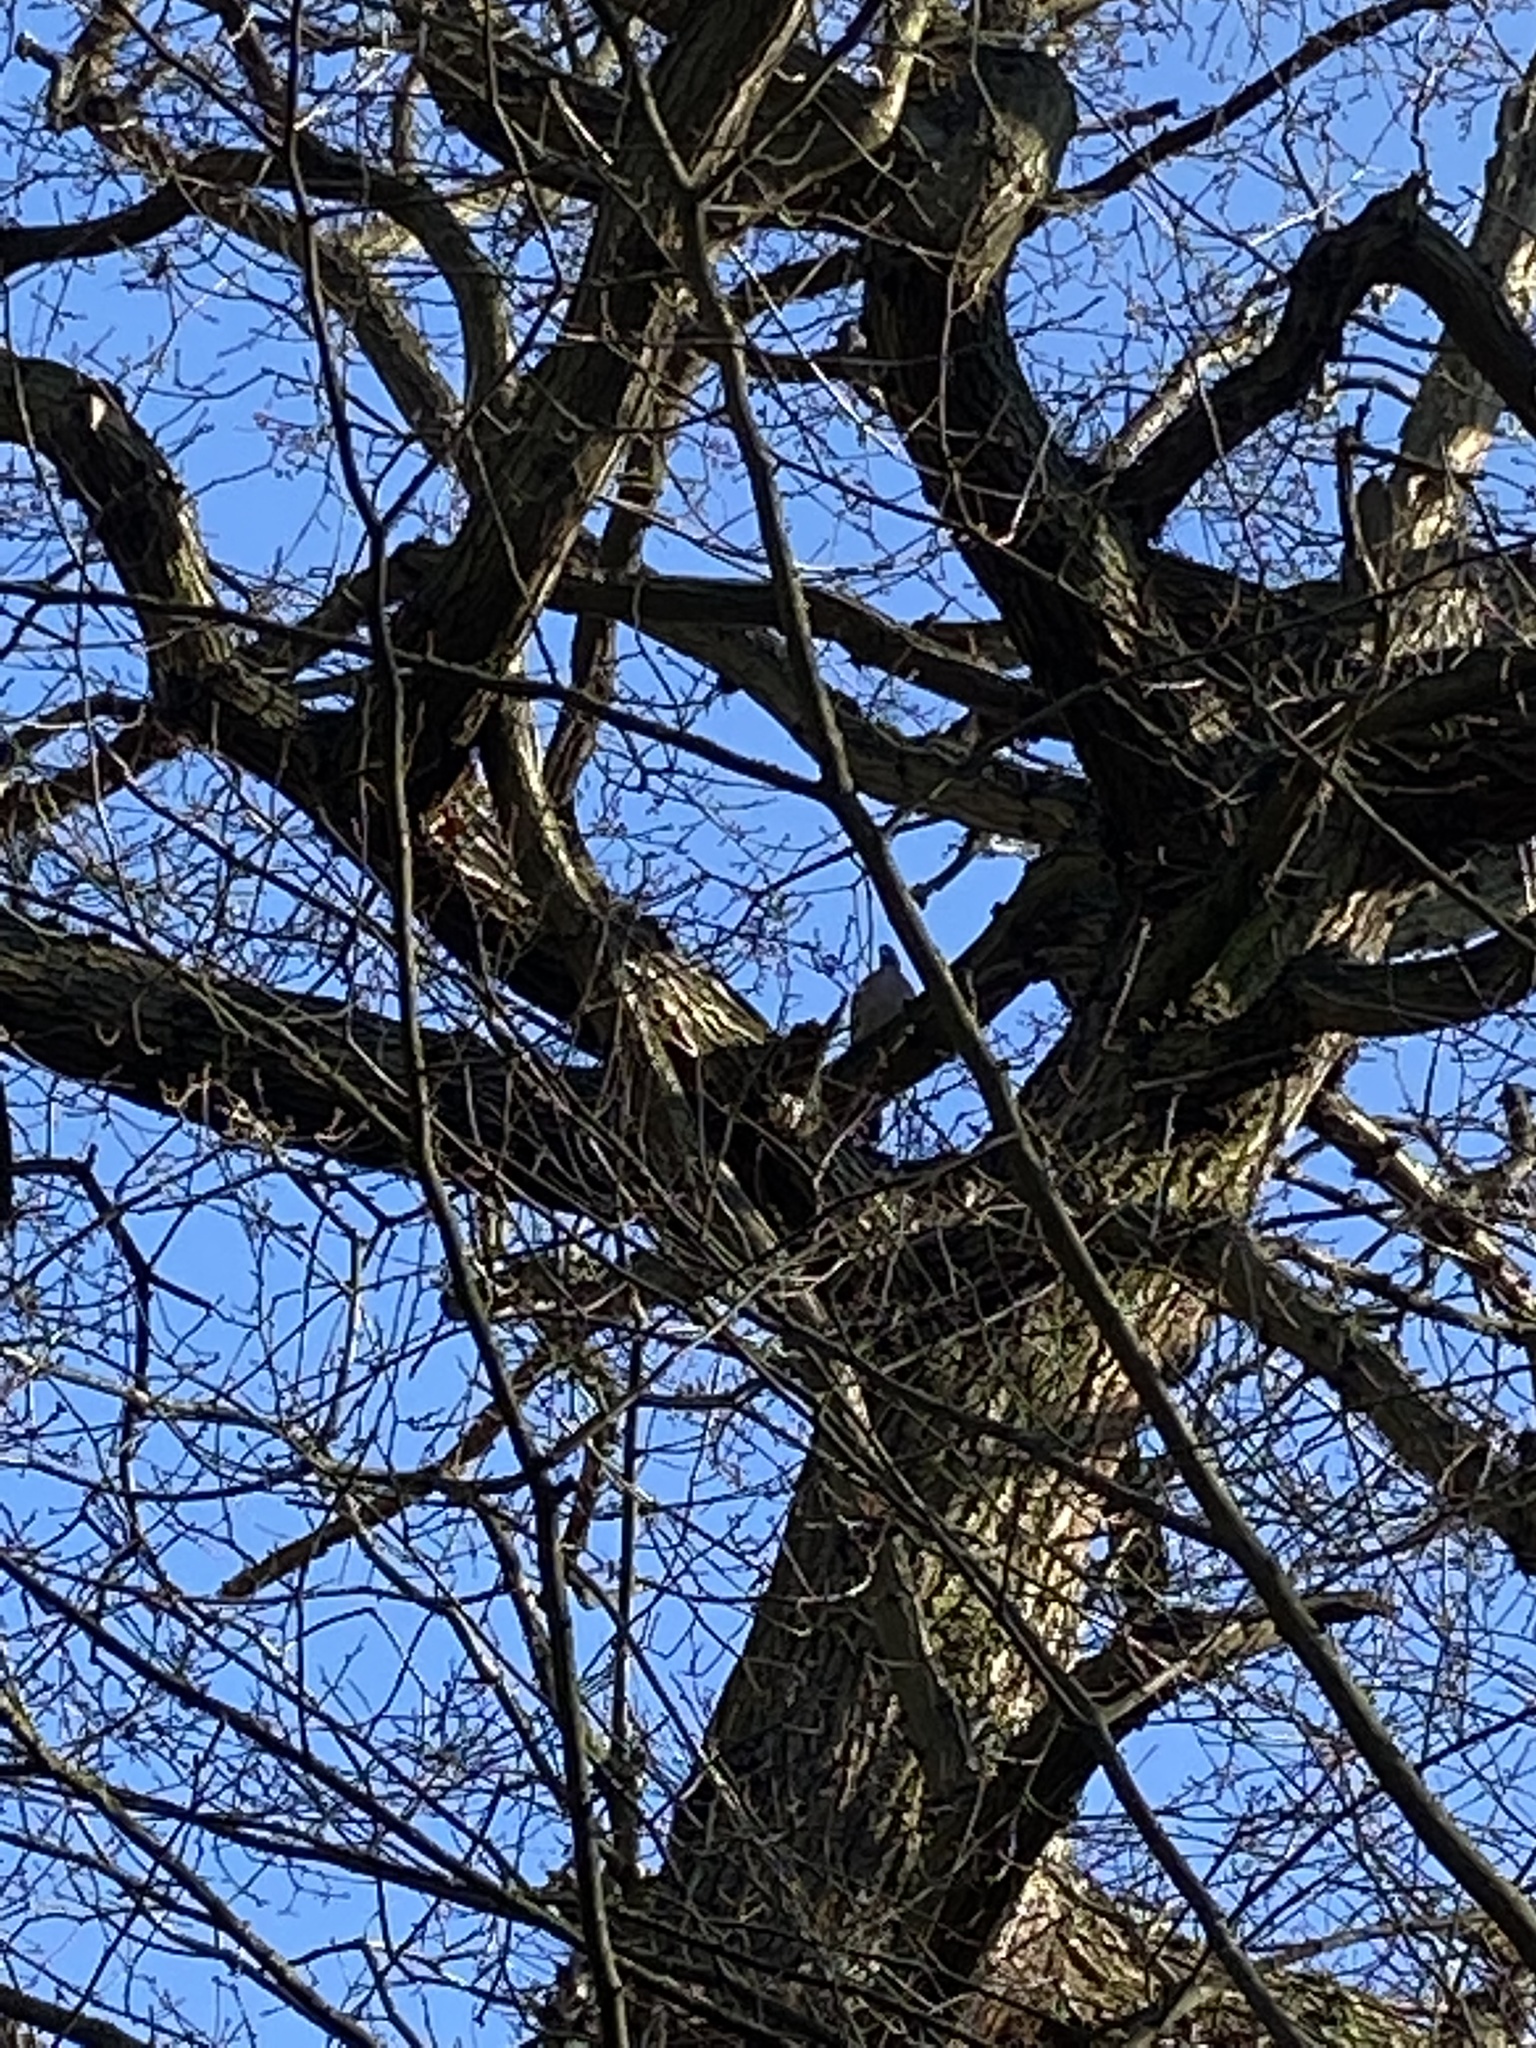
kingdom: Animalia
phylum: Chordata
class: Aves
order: Columbiformes
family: Columbidae
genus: Columba
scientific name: Columba palumbus
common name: Common wood pigeon
